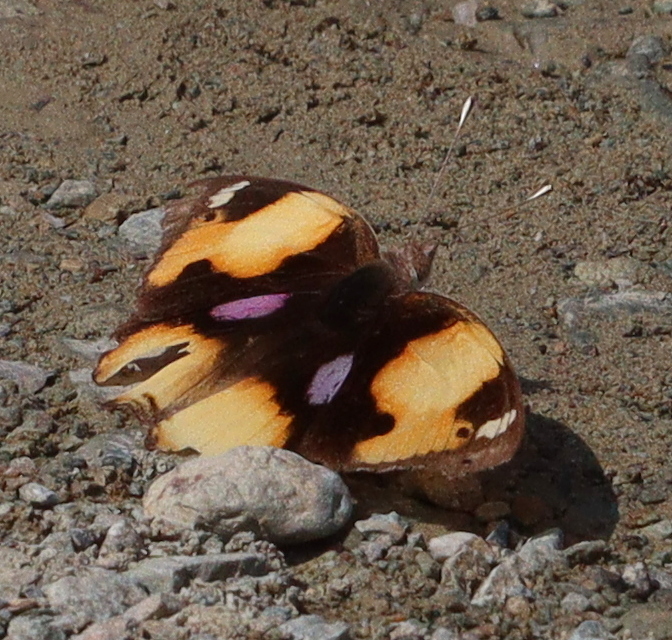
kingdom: Animalia
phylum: Arthropoda
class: Insecta
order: Lepidoptera
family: Nymphalidae
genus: Junonia
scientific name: Junonia hierta
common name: Yellow pansy
